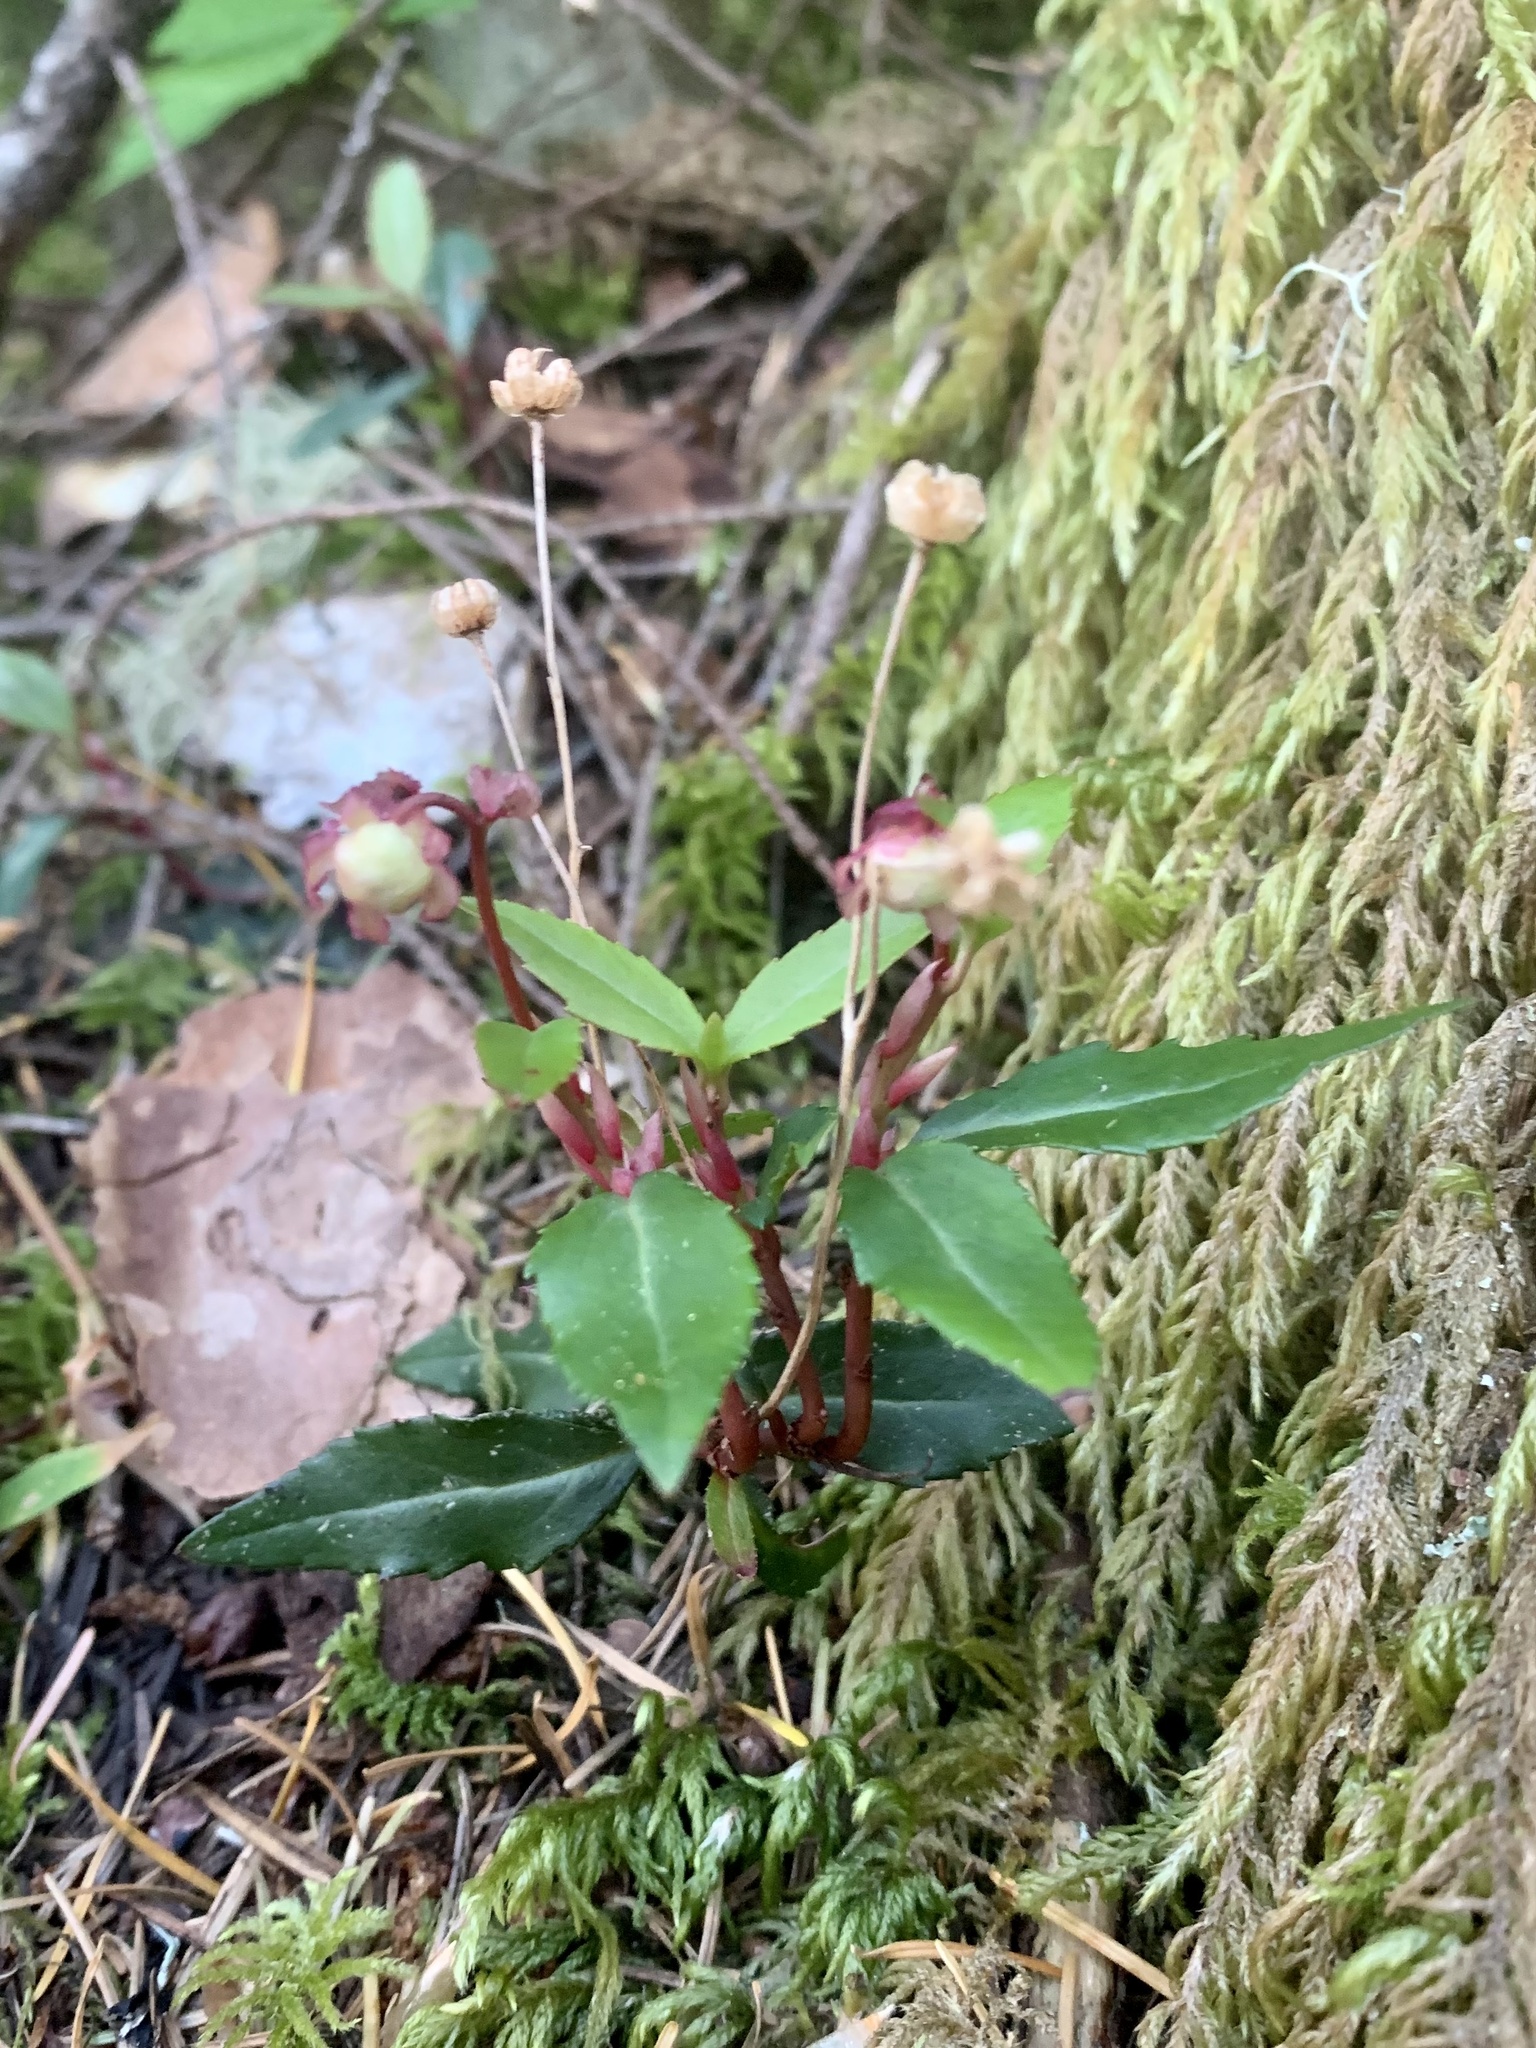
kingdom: Plantae
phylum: Tracheophyta
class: Magnoliopsida
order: Ericales
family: Ericaceae
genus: Chimaphila
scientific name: Chimaphila menziesii
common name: Menzies' pipsissewa
